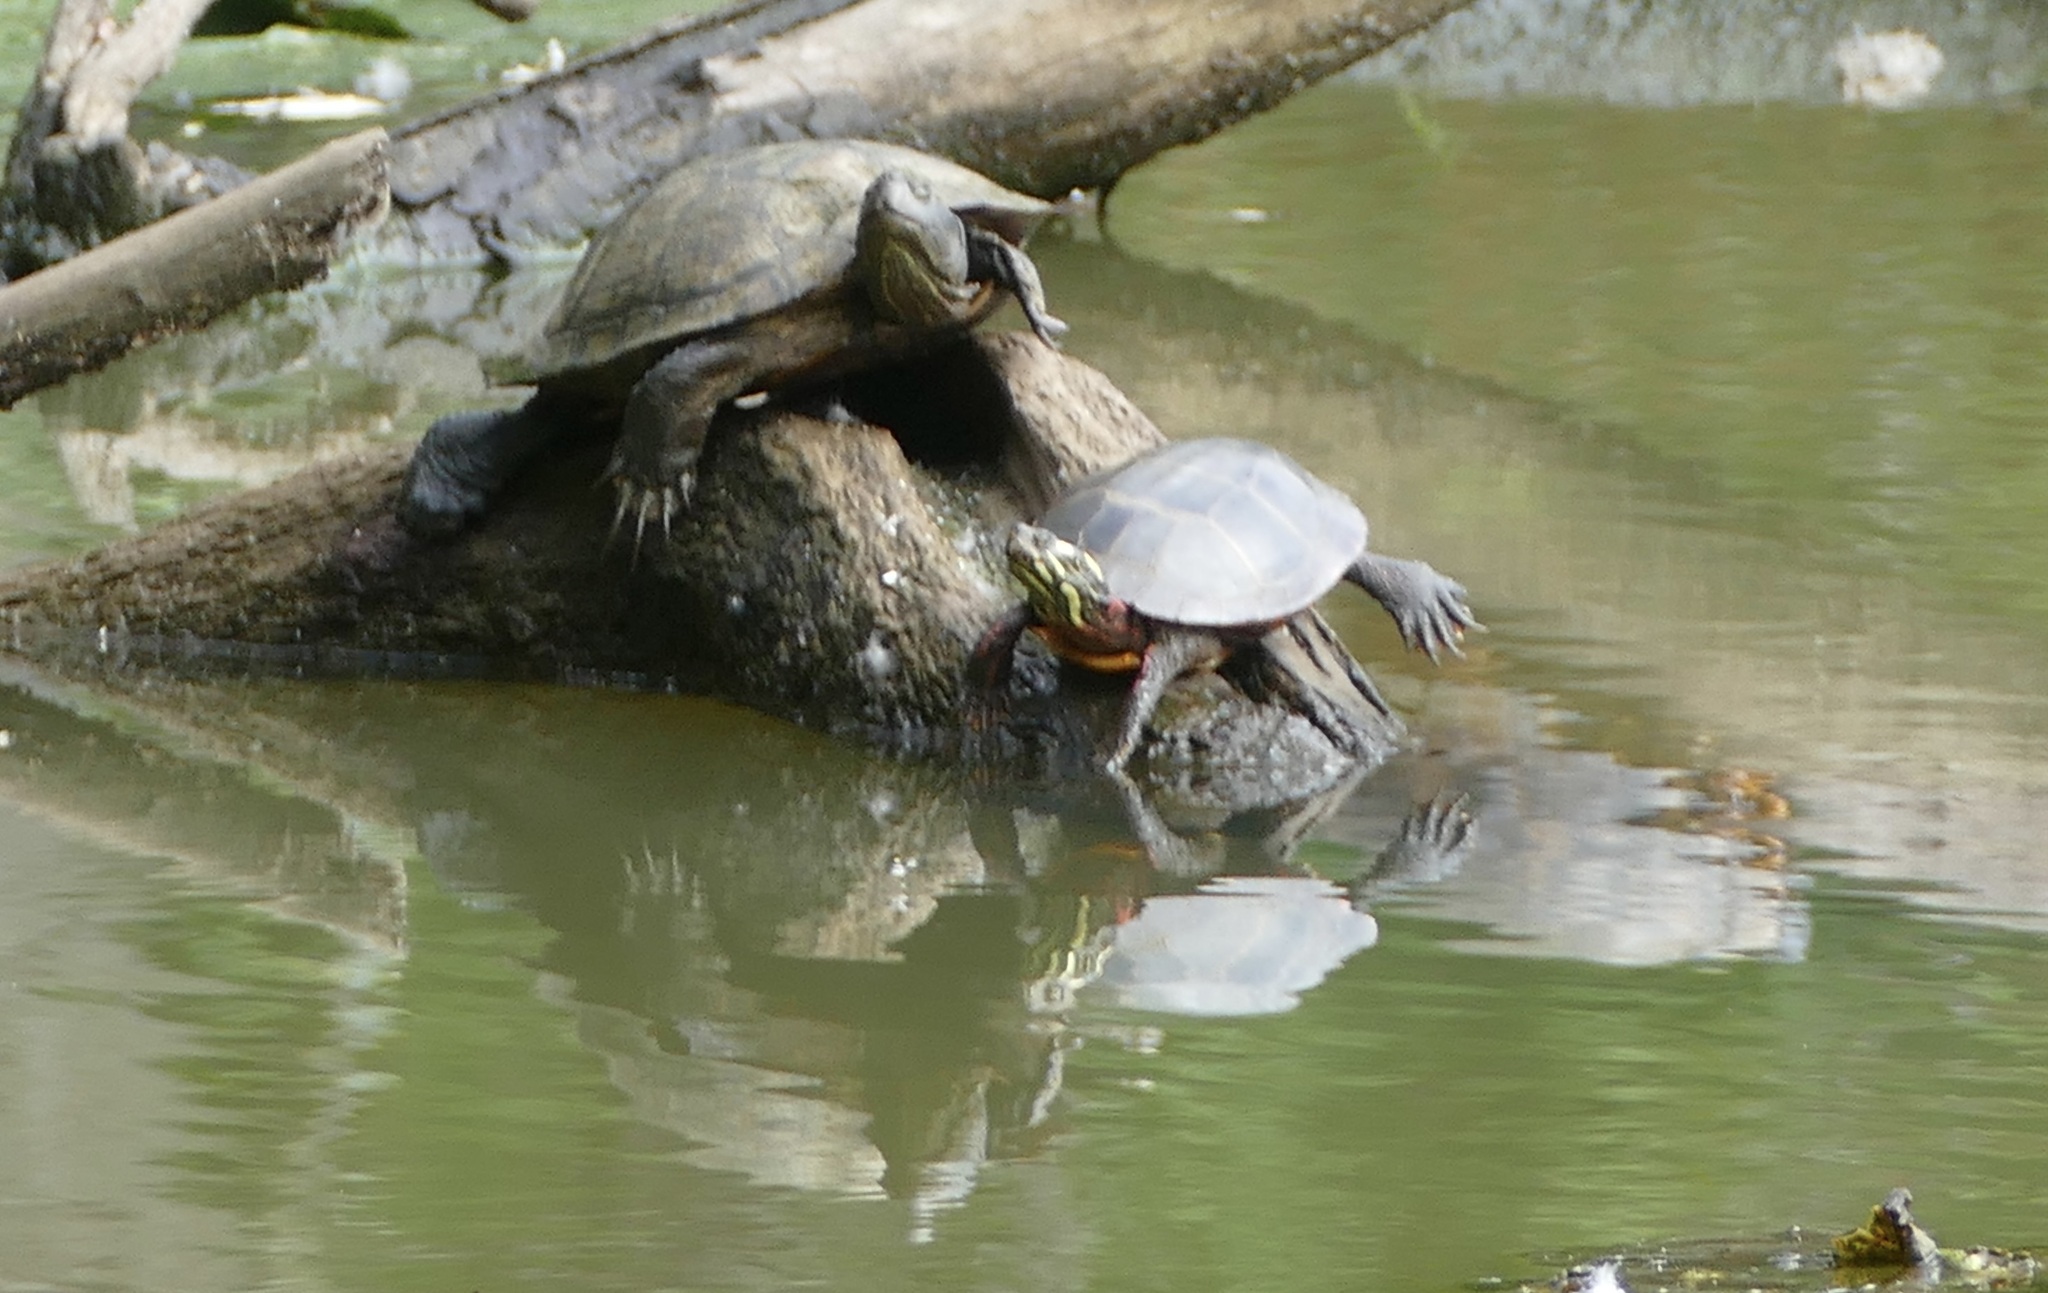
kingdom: Animalia
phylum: Chordata
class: Testudines
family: Emydidae
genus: Chrysemys
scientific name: Chrysemys picta
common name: Painted turtle
